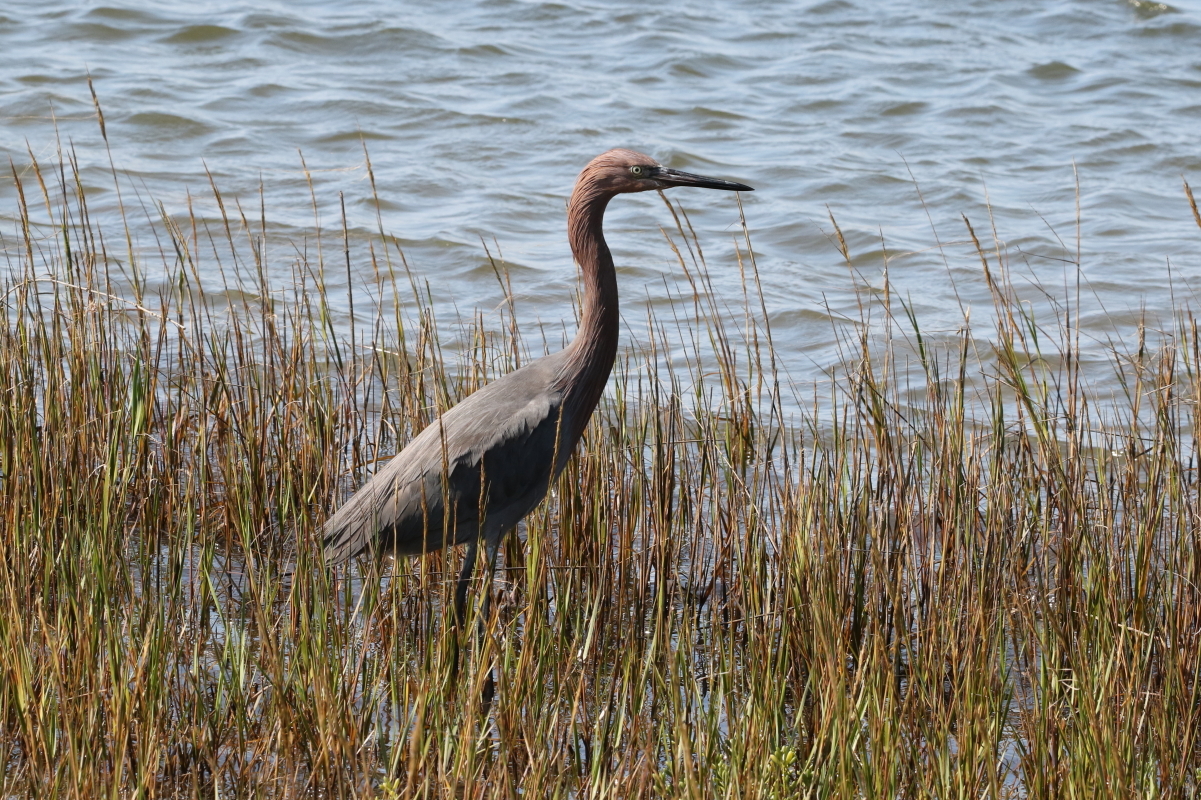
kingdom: Animalia
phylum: Chordata
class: Aves
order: Pelecaniformes
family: Ardeidae
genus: Egretta
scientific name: Egretta rufescens
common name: Reddish egret
